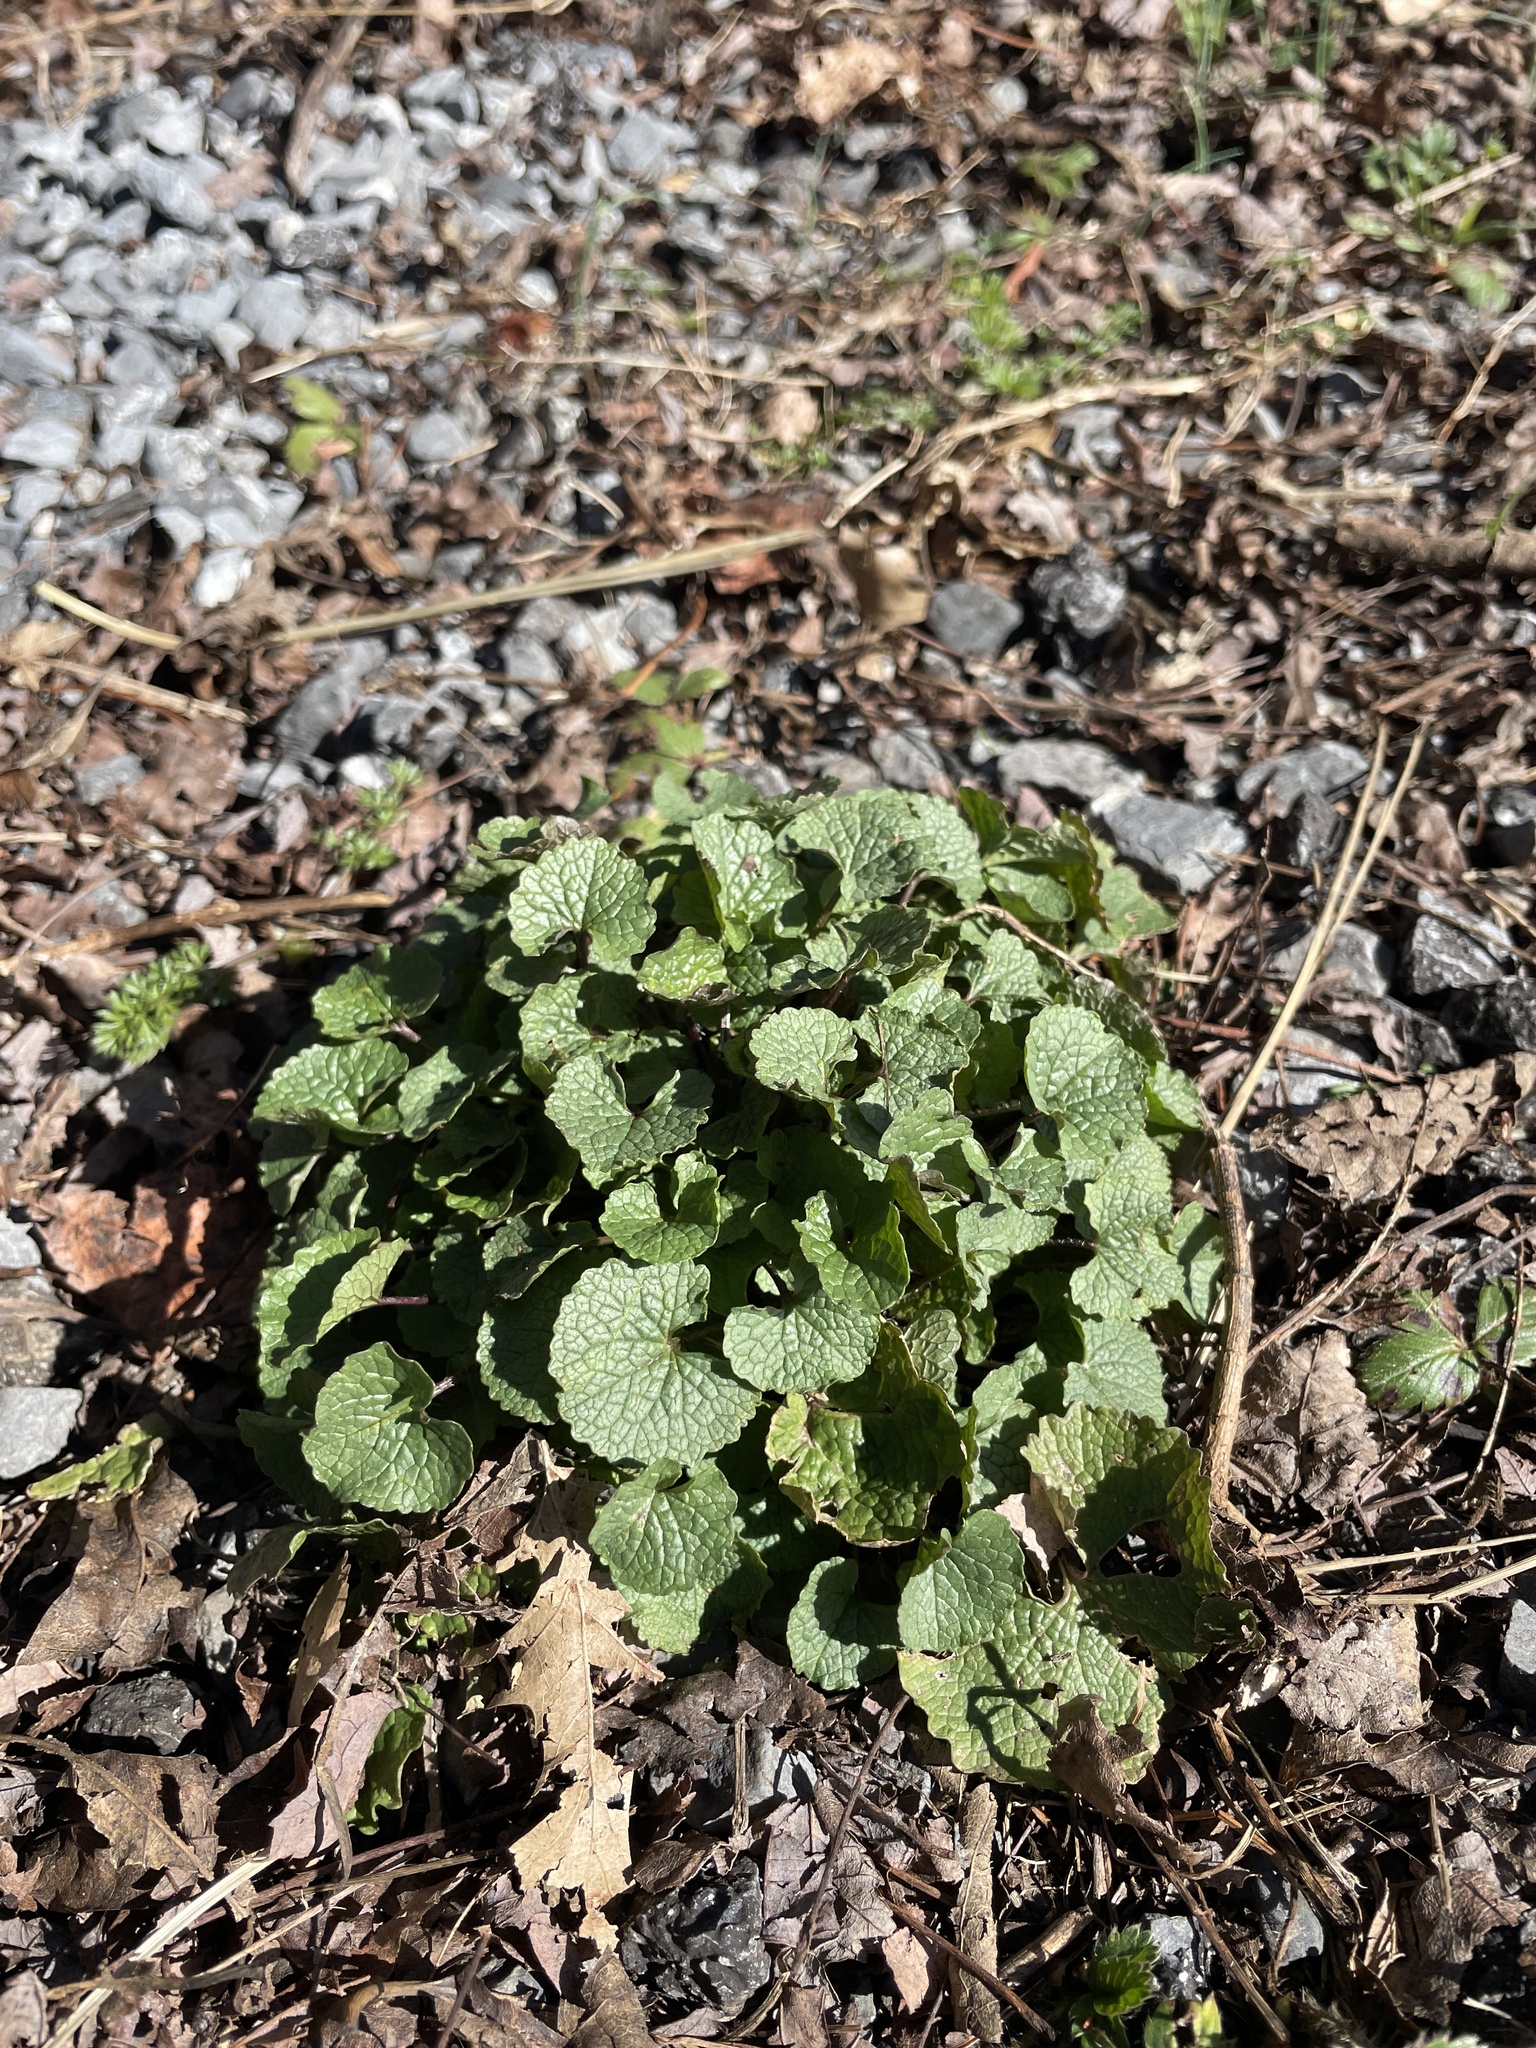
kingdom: Plantae
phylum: Tracheophyta
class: Magnoliopsida
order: Brassicales
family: Brassicaceae
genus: Alliaria
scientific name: Alliaria petiolata
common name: Garlic mustard
